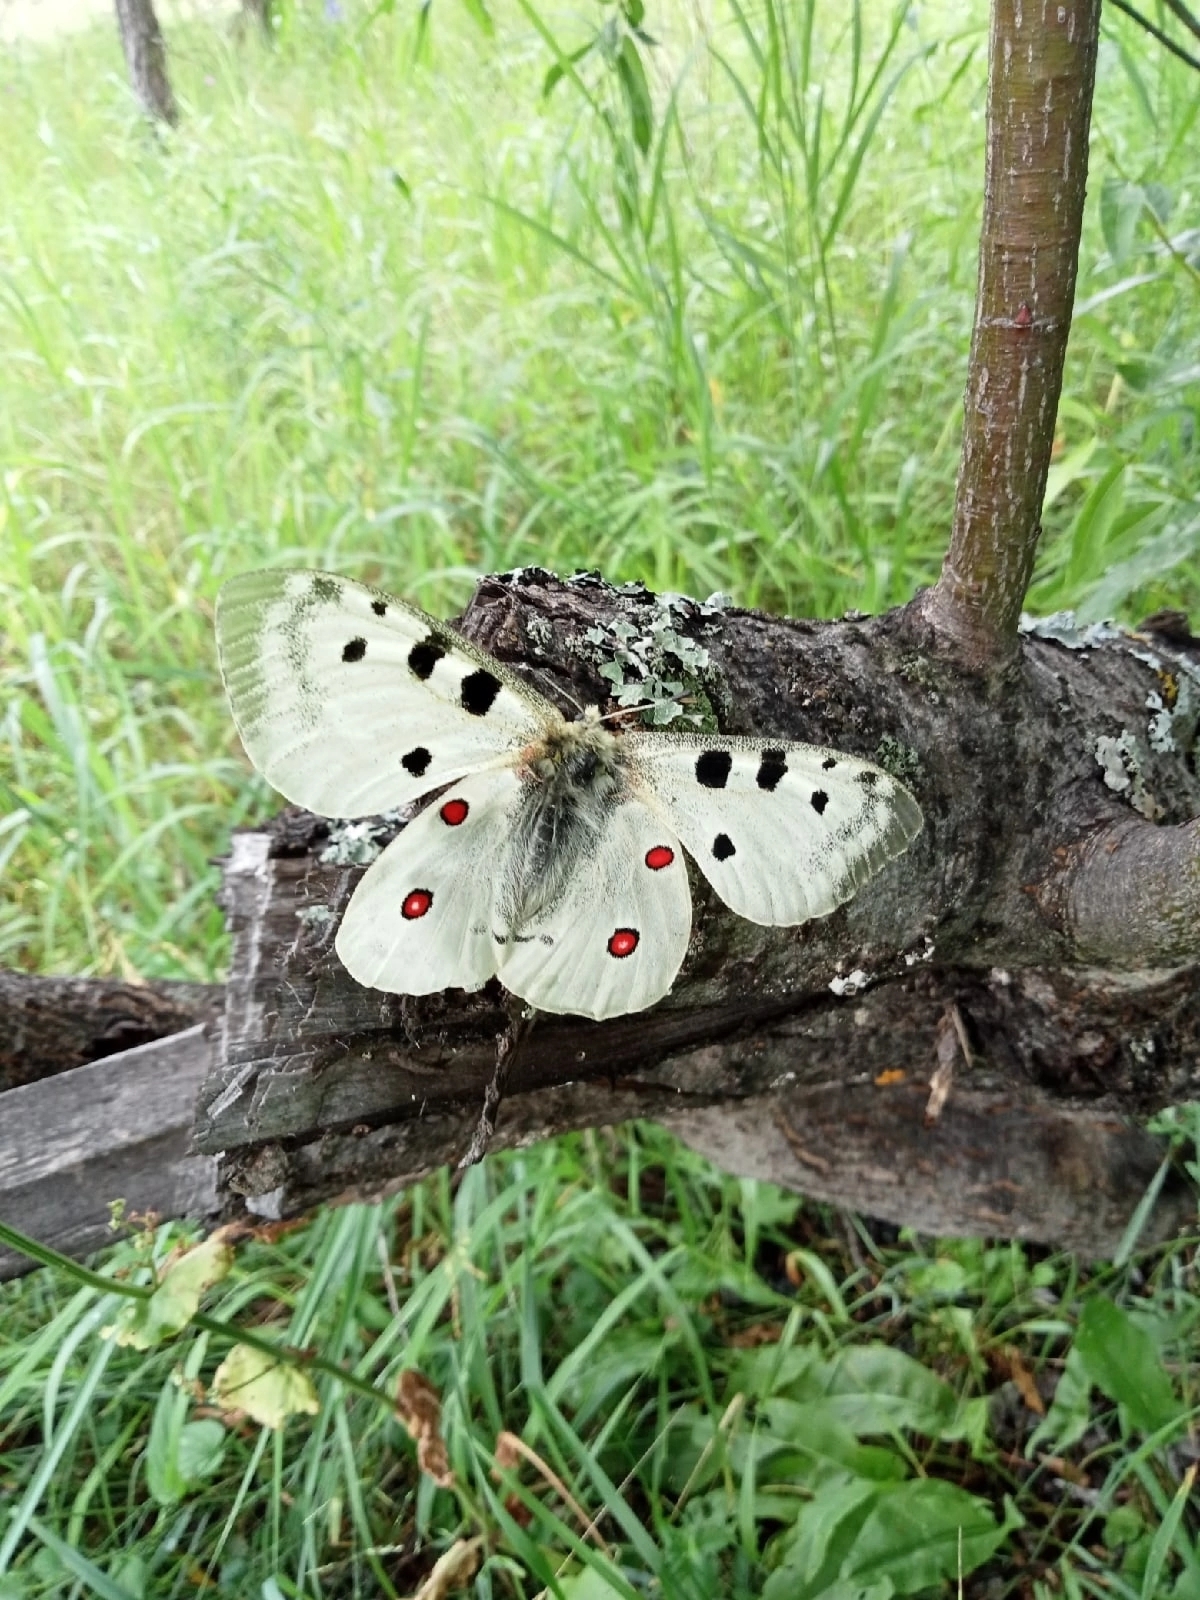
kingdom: Animalia
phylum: Arthropoda
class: Insecta
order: Lepidoptera
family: Papilionidae
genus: Parnassius
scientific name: Parnassius apollo
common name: Apollo
